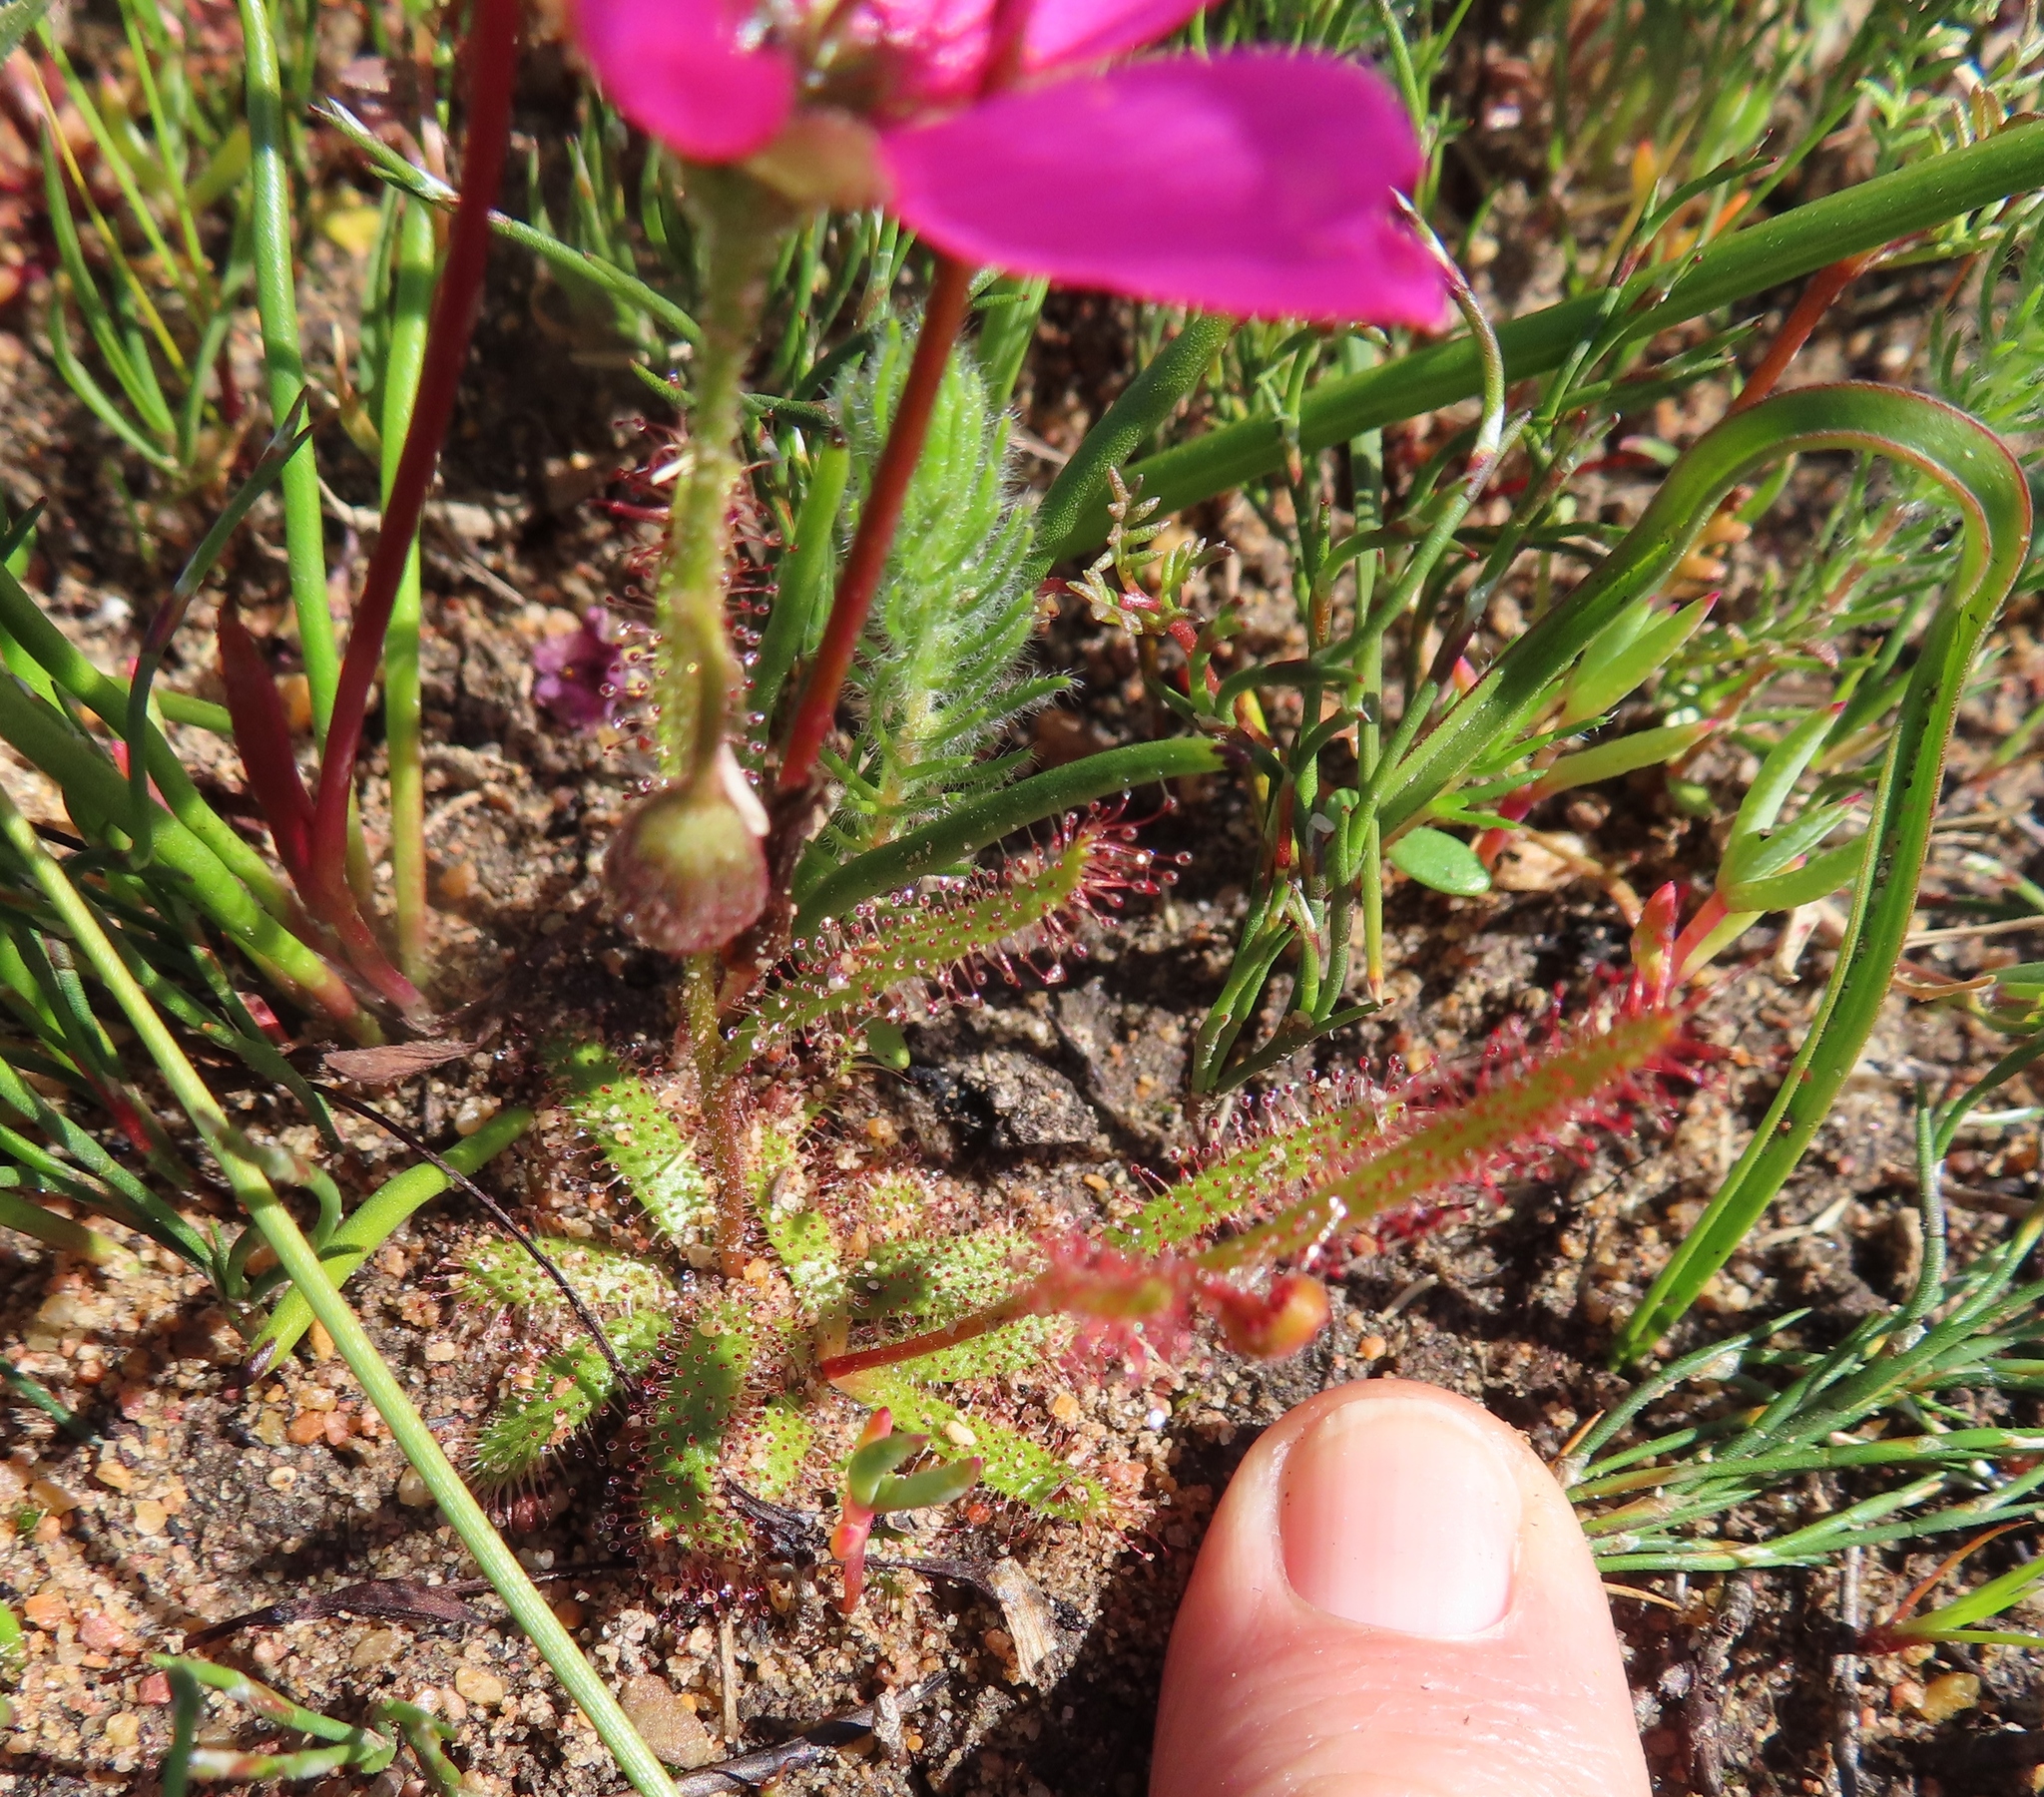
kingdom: Plantae
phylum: Tracheophyta
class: Magnoliopsida
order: Caryophyllales
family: Droseraceae
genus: Drosera
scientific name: Drosera cistiflora
